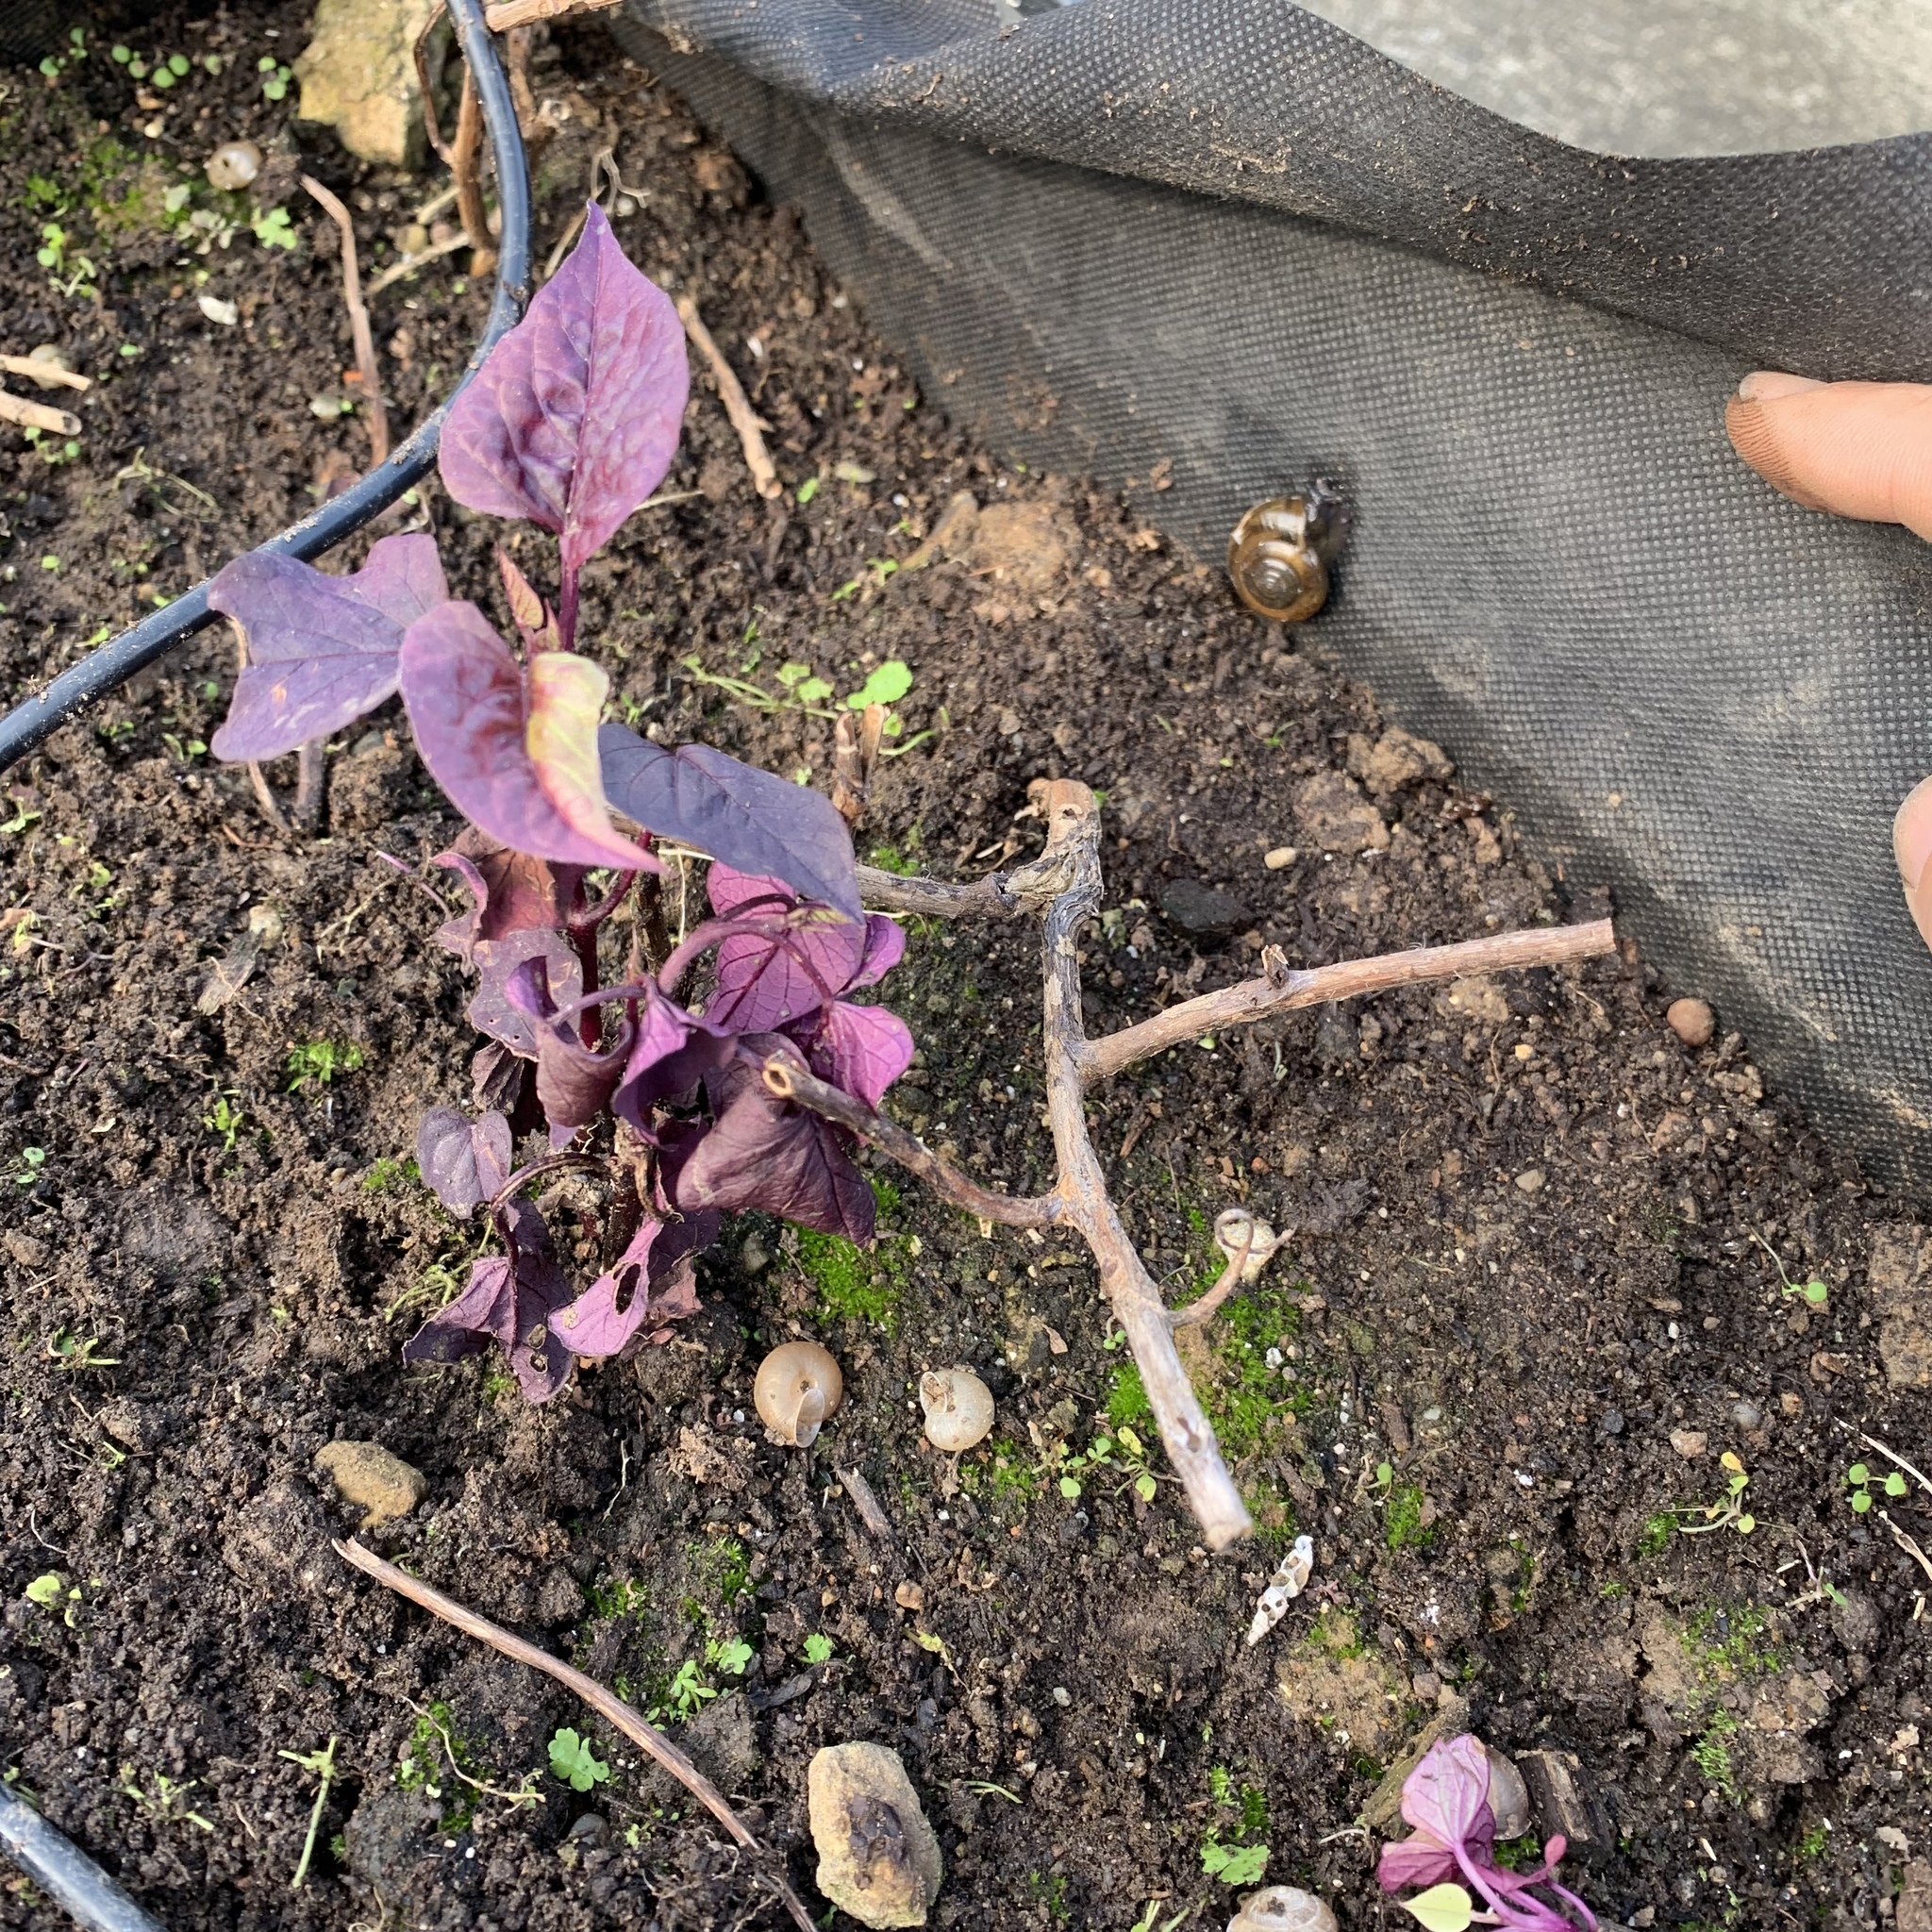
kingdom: Animalia
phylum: Mollusca
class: Gastropoda
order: Stylommatophora
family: Ariophantidae
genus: Macrochlamys
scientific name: Macrochlamys hippocastaneum
